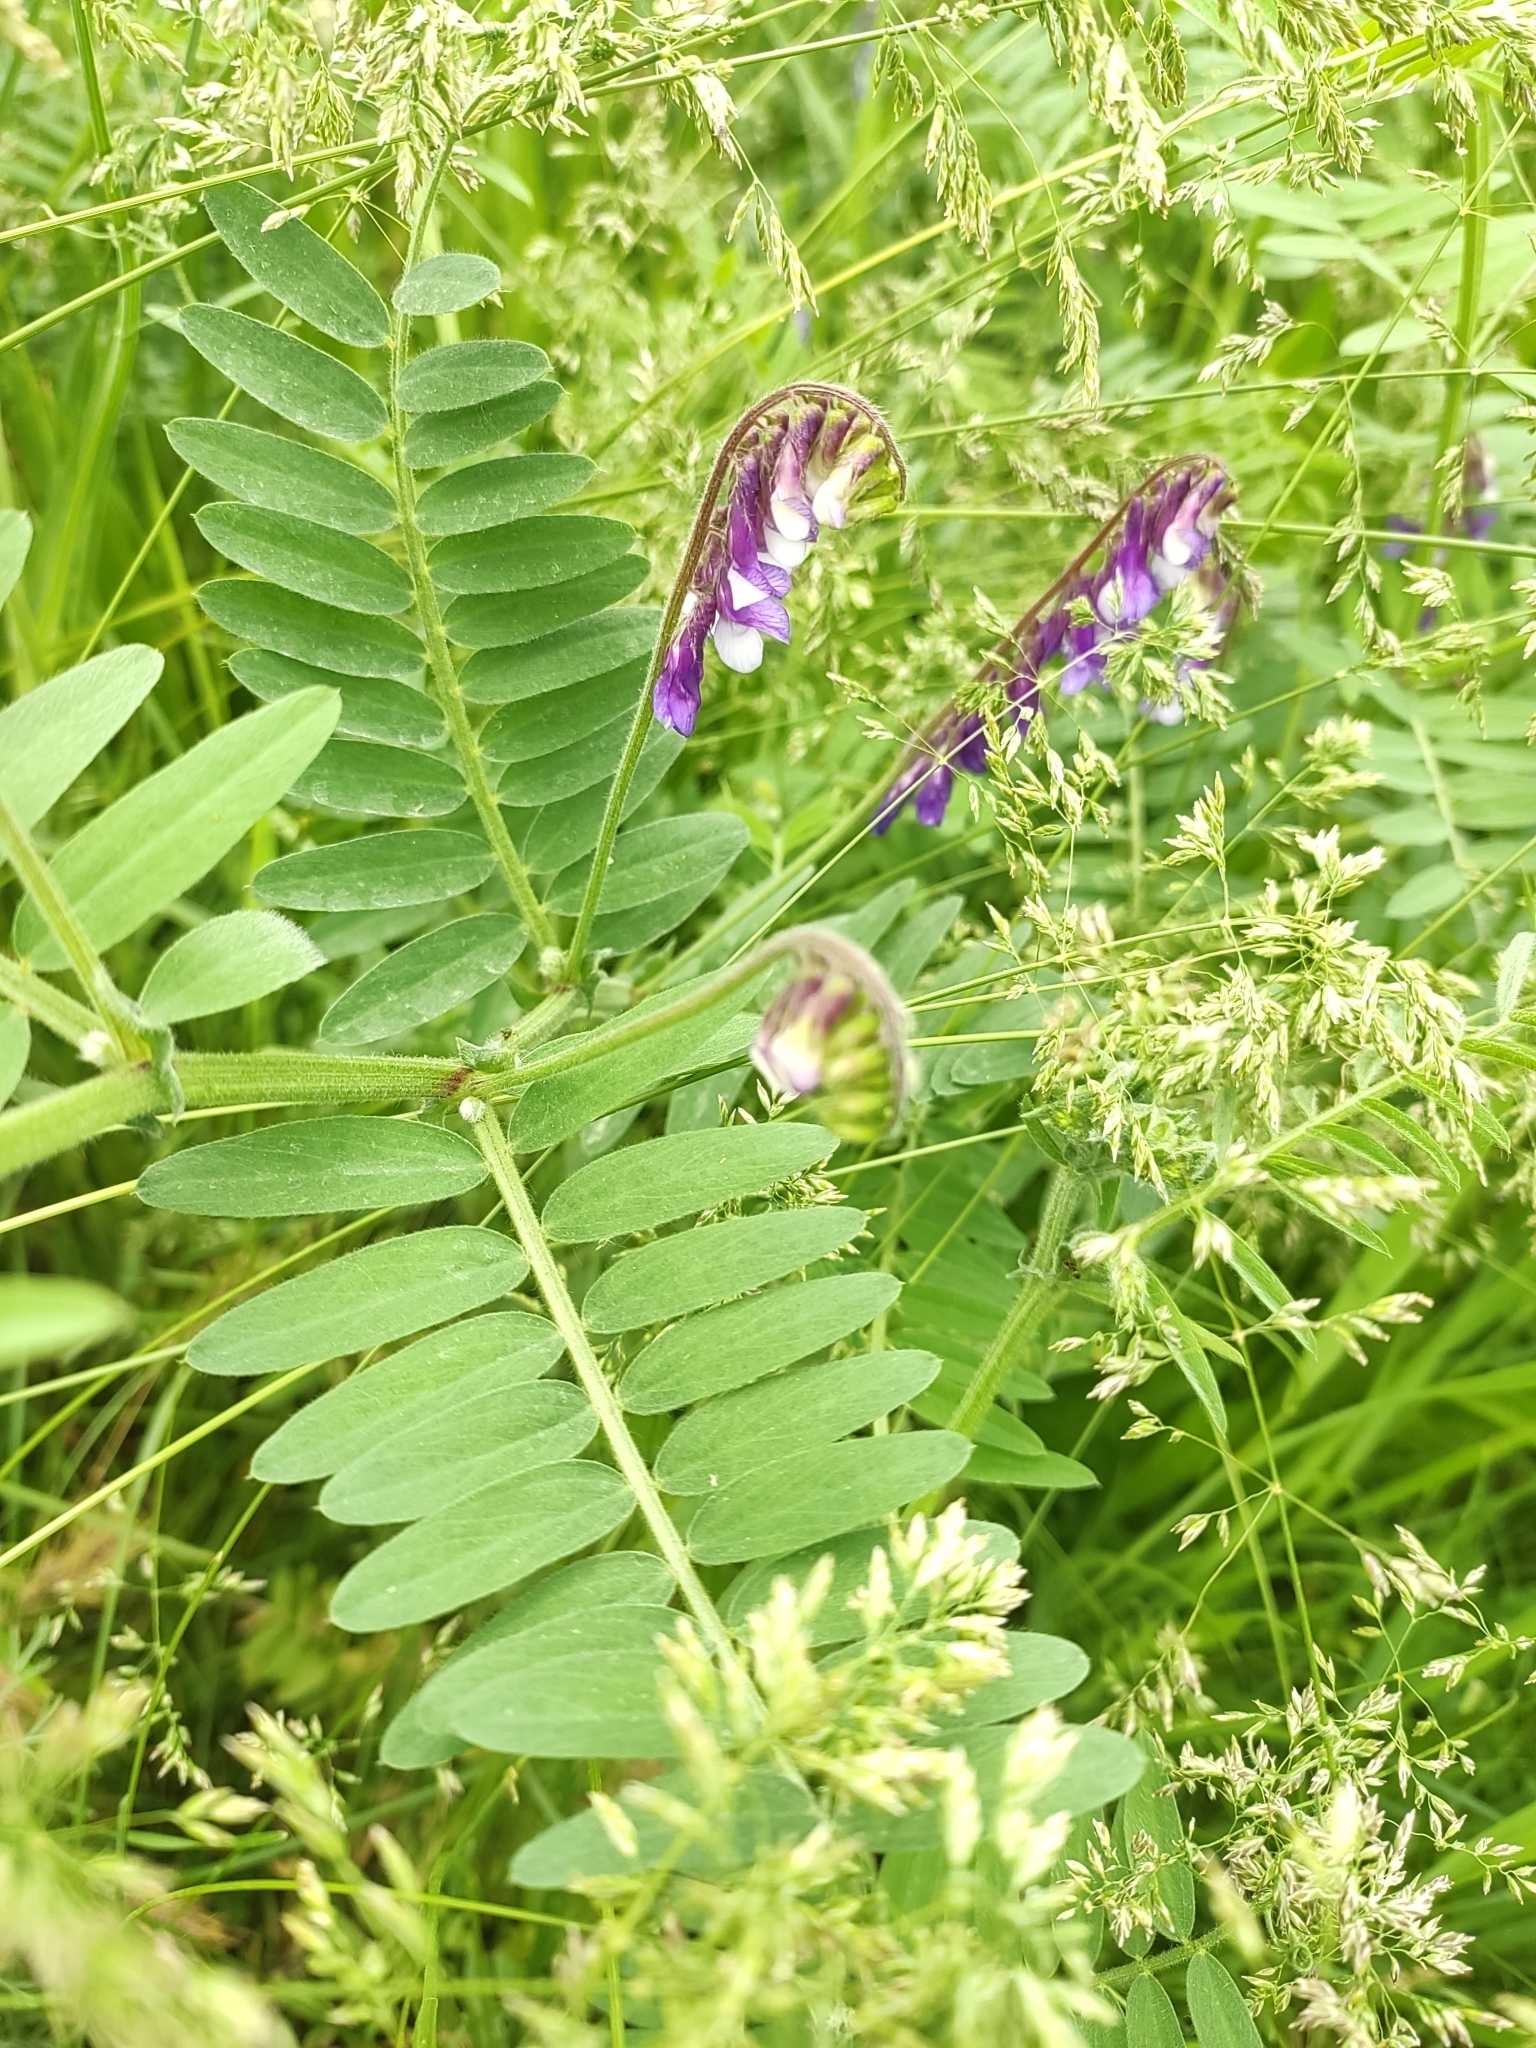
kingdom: Plantae
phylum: Tracheophyta
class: Magnoliopsida
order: Fabales
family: Fabaceae
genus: Vicia
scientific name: Vicia villosa
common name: Fodder vetch
